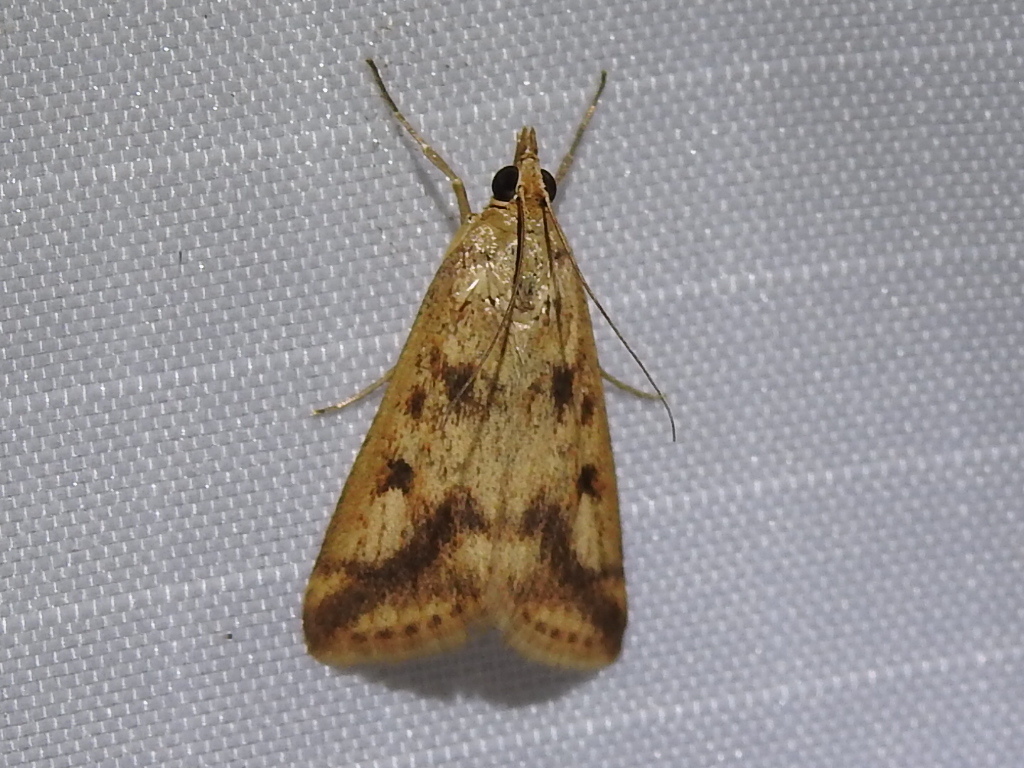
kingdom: Animalia
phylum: Arthropoda
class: Insecta
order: Lepidoptera
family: Crambidae
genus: Achyra
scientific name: Achyra bifidalis
